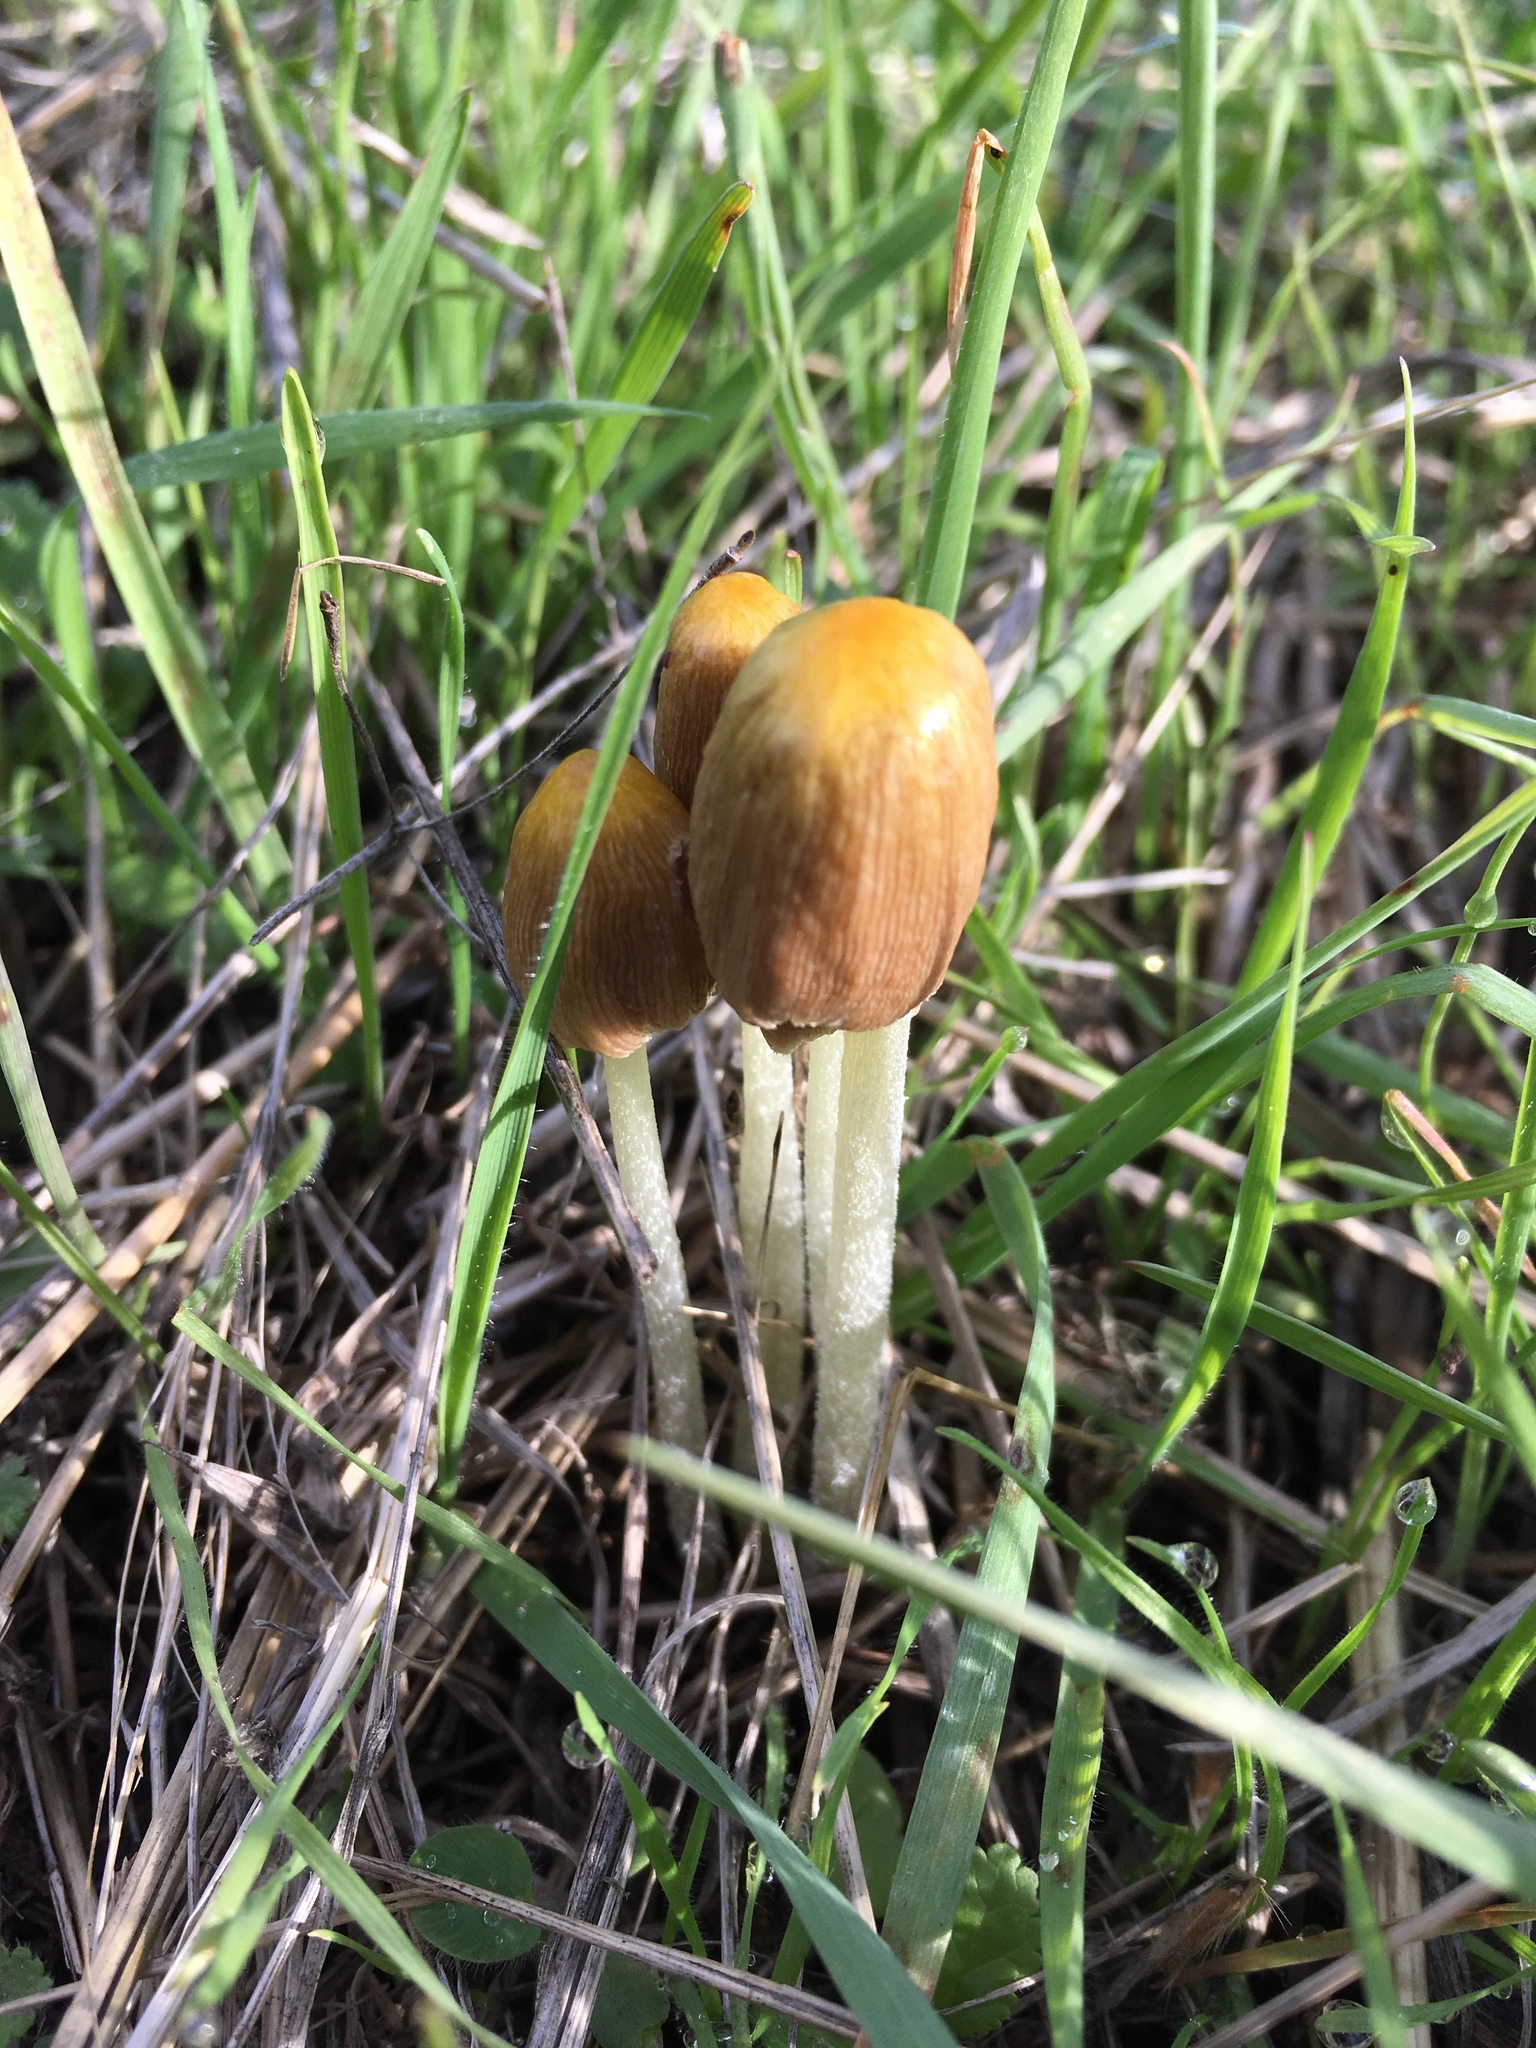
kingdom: Fungi
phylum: Basidiomycota
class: Agaricomycetes
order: Agaricales
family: Bolbitiaceae
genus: Bolbitius
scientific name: Bolbitius titubans
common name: Yellow fieldcap
